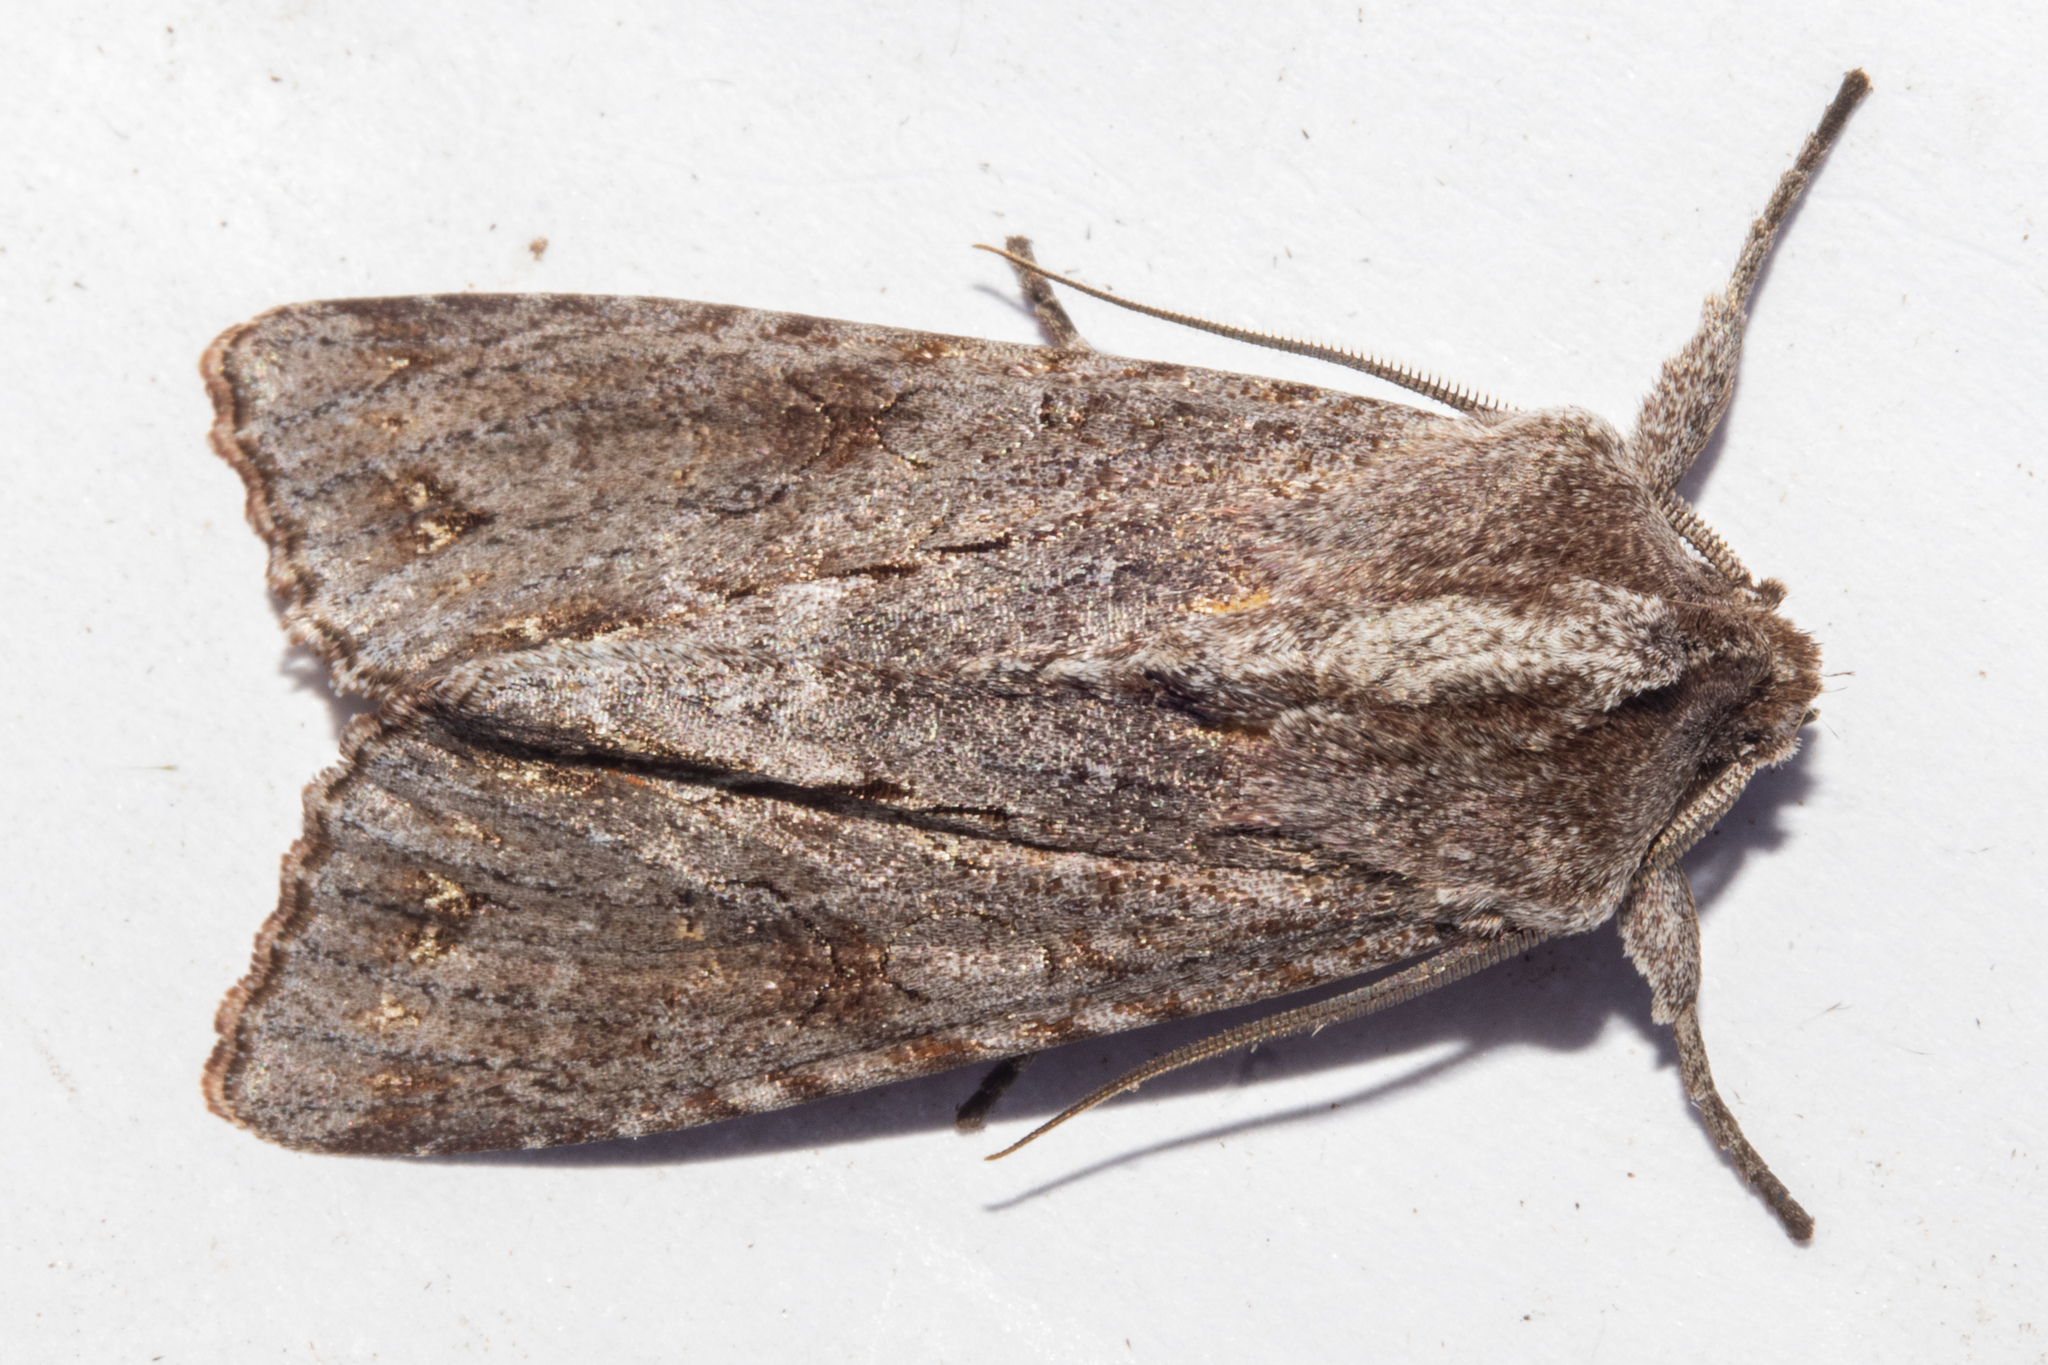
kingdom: Animalia
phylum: Arthropoda
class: Insecta
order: Lepidoptera
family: Noctuidae
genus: Ichneutica
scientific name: Ichneutica
